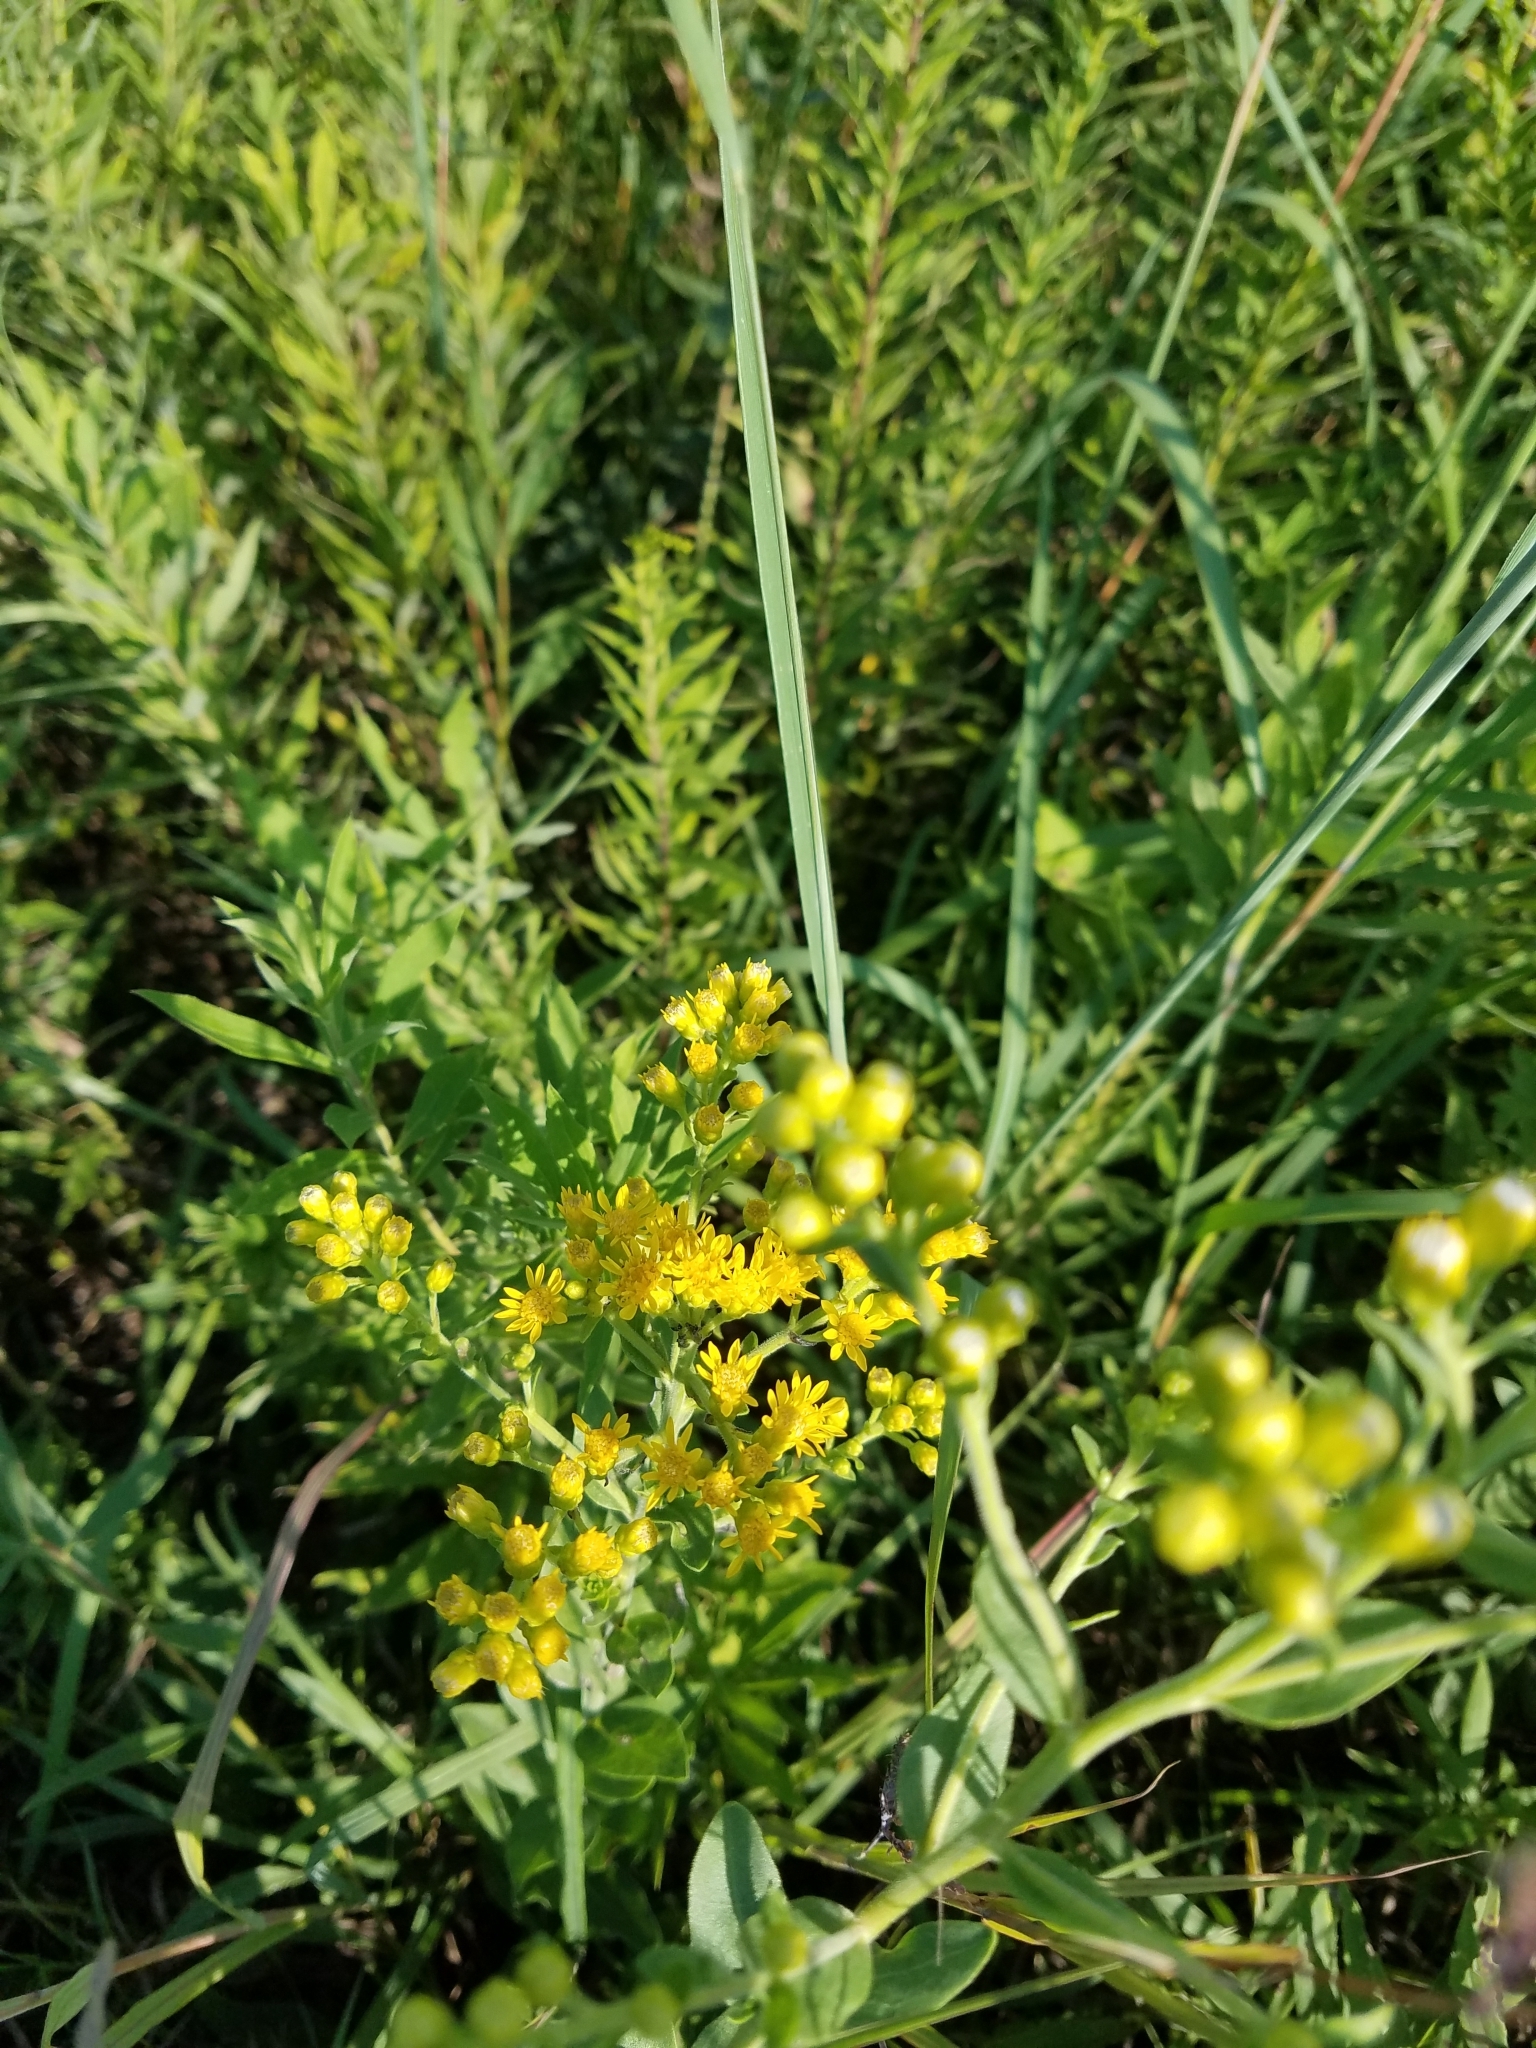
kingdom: Plantae
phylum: Tracheophyta
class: Magnoliopsida
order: Asterales
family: Asteraceae
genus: Solidago
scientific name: Solidago rigida
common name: Rigid goldenrod
